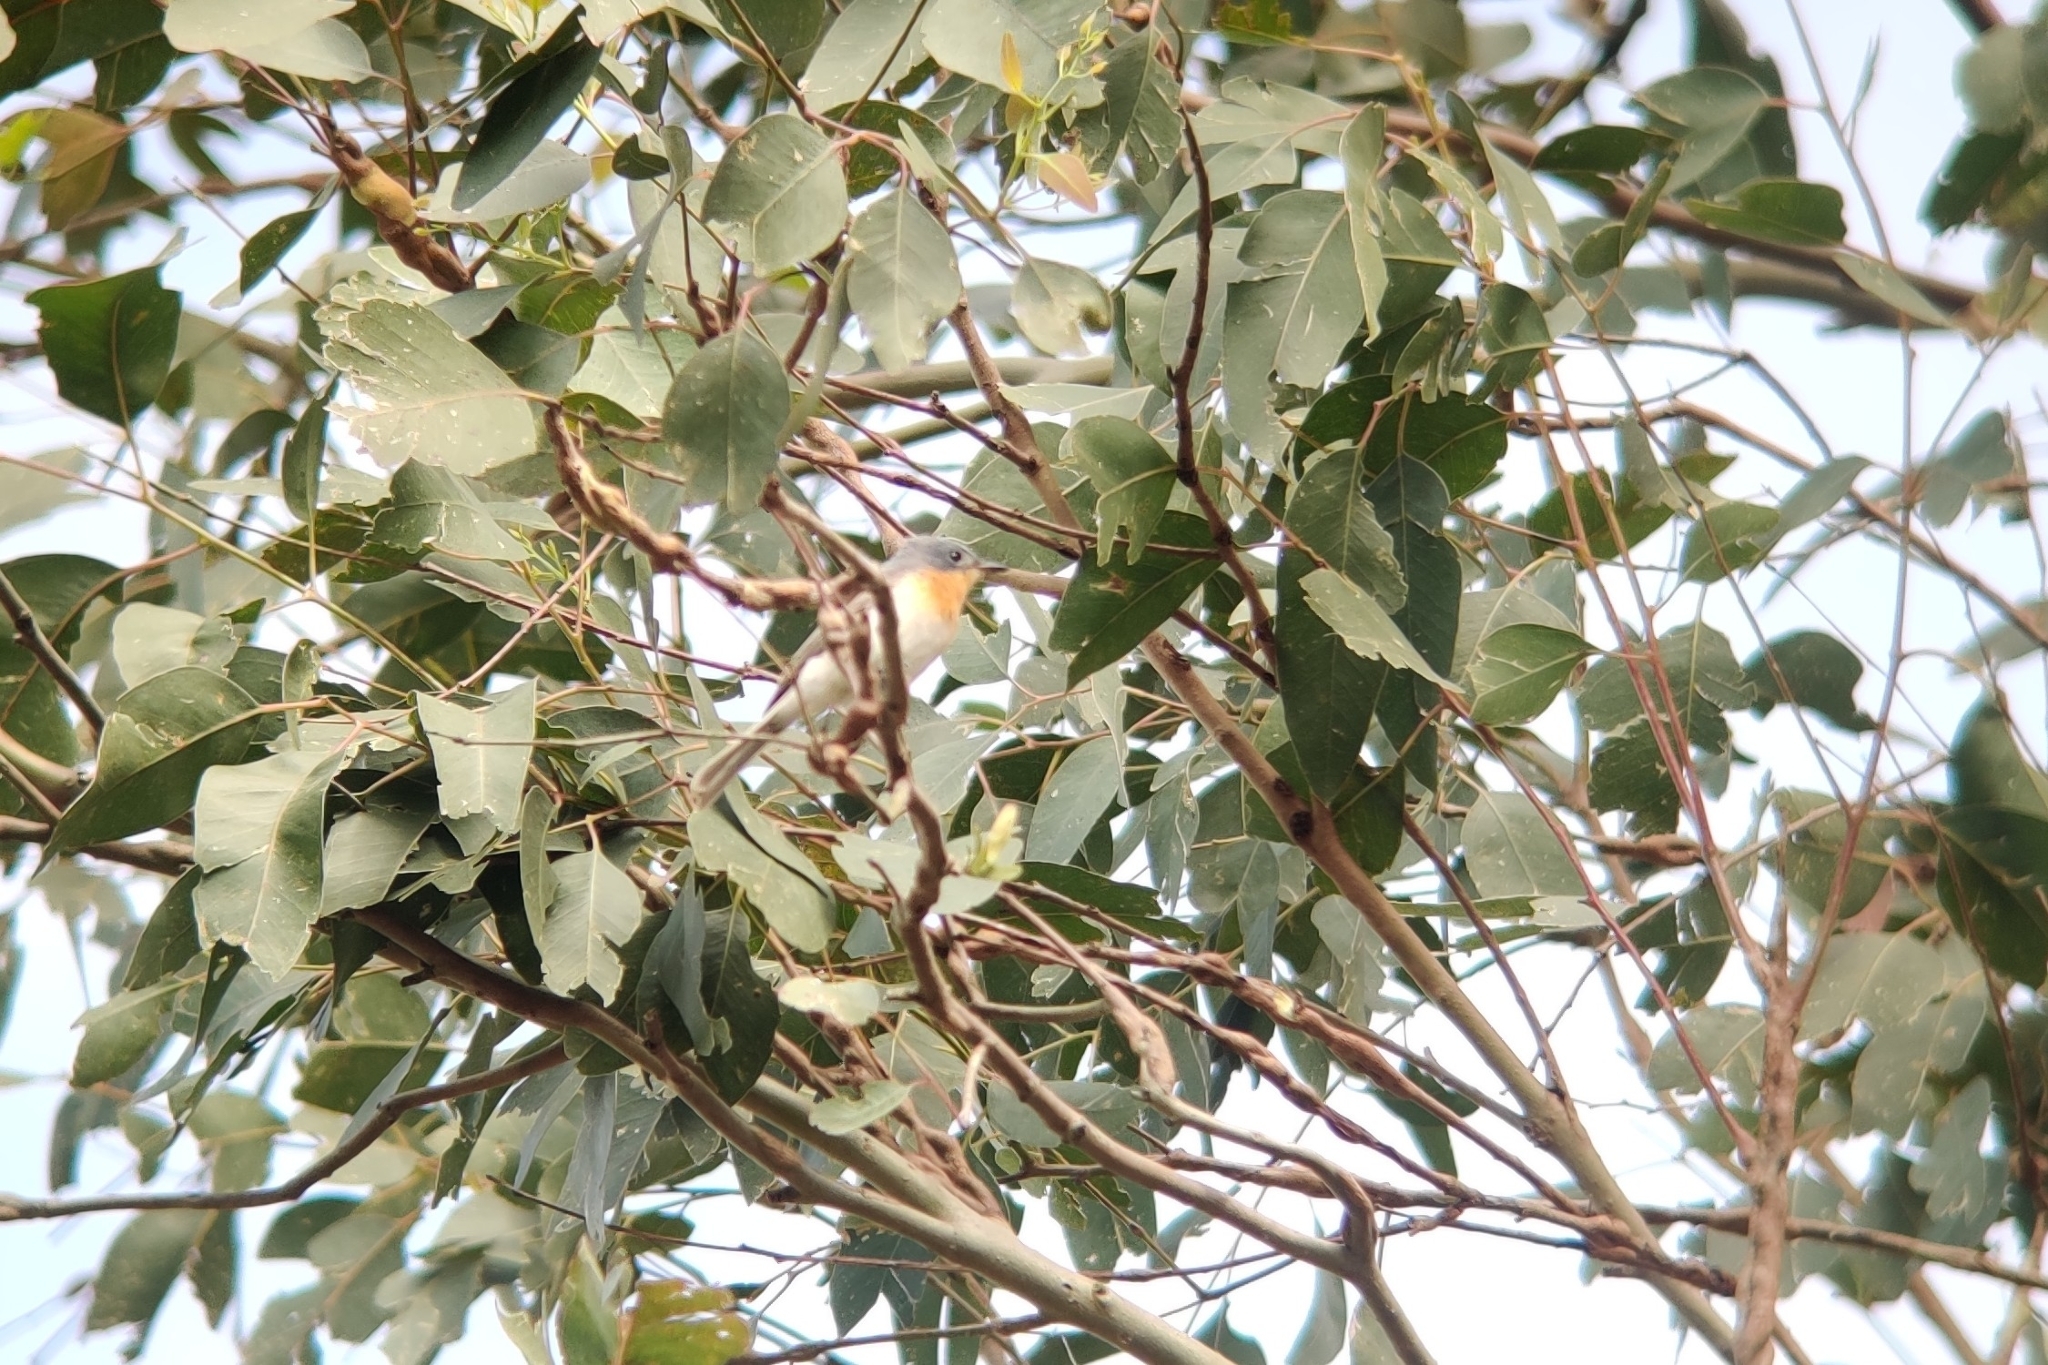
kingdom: Animalia
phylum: Chordata
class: Aves
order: Passeriformes
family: Monarchidae
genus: Myiagra
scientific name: Myiagra rubecula
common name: Leaden flycatcher
